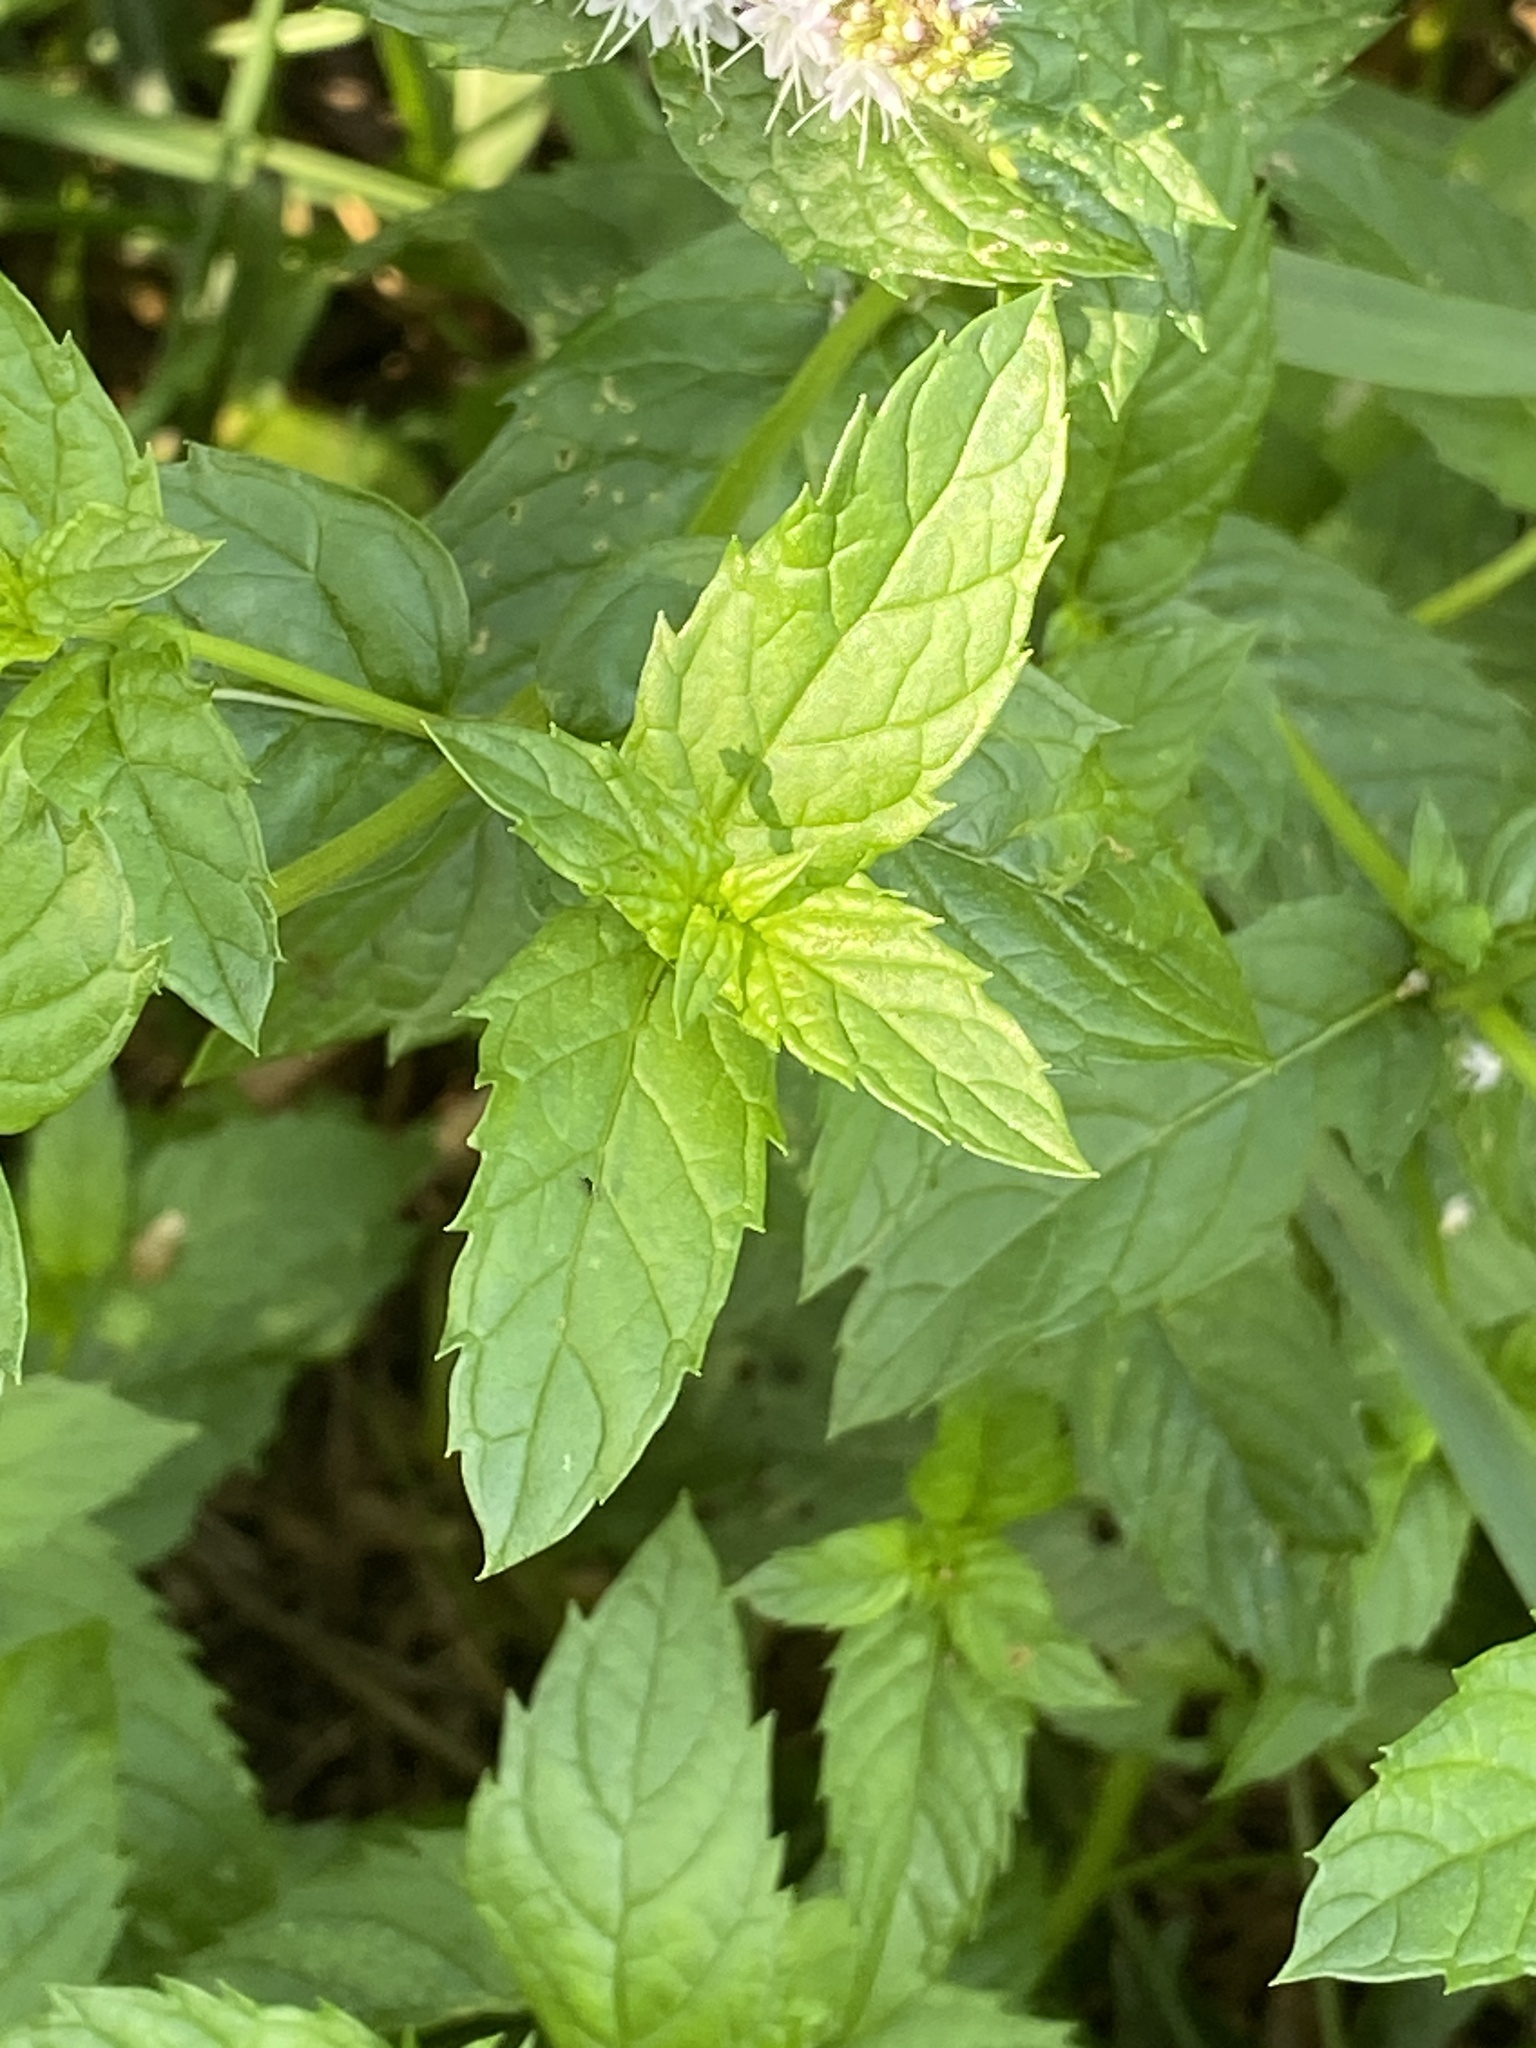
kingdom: Plantae
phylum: Tracheophyta
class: Magnoliopsida
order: Lamiales
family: Lamiaceae
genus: Mentha
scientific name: Mentha spicata
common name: Spearmint
